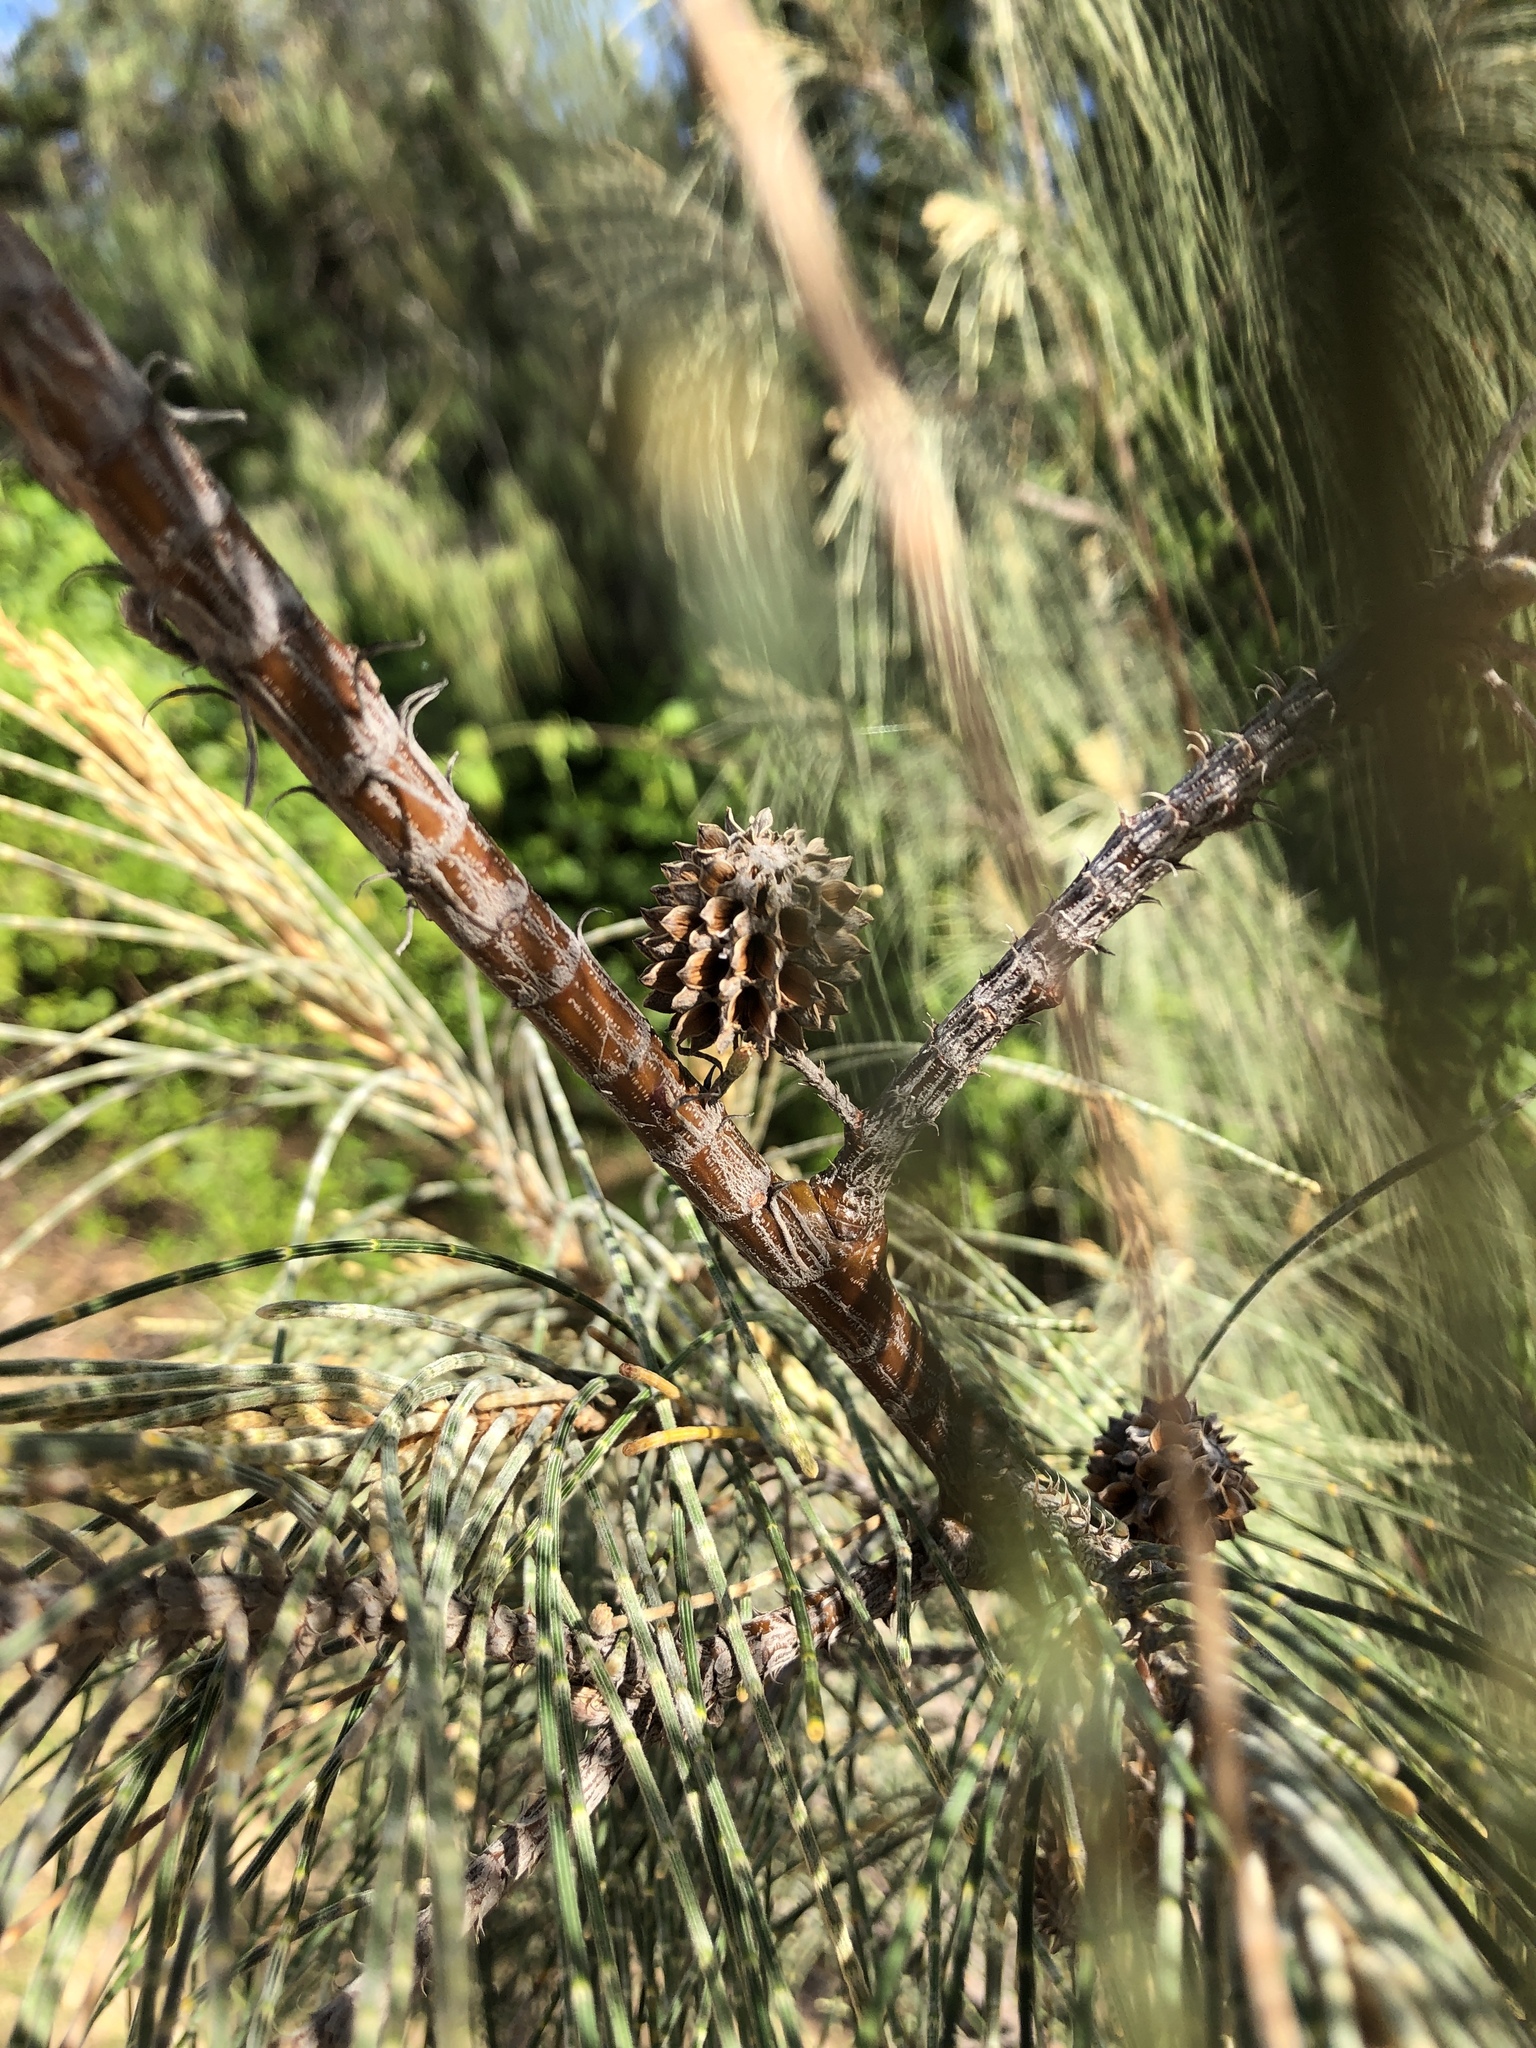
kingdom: Plantae
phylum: Tracheophyta
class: Magnoliopsida
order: Fagales
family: Casuarinaceae
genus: Casuarina
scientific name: Casuarina equisetifolia
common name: Beach sheoak
